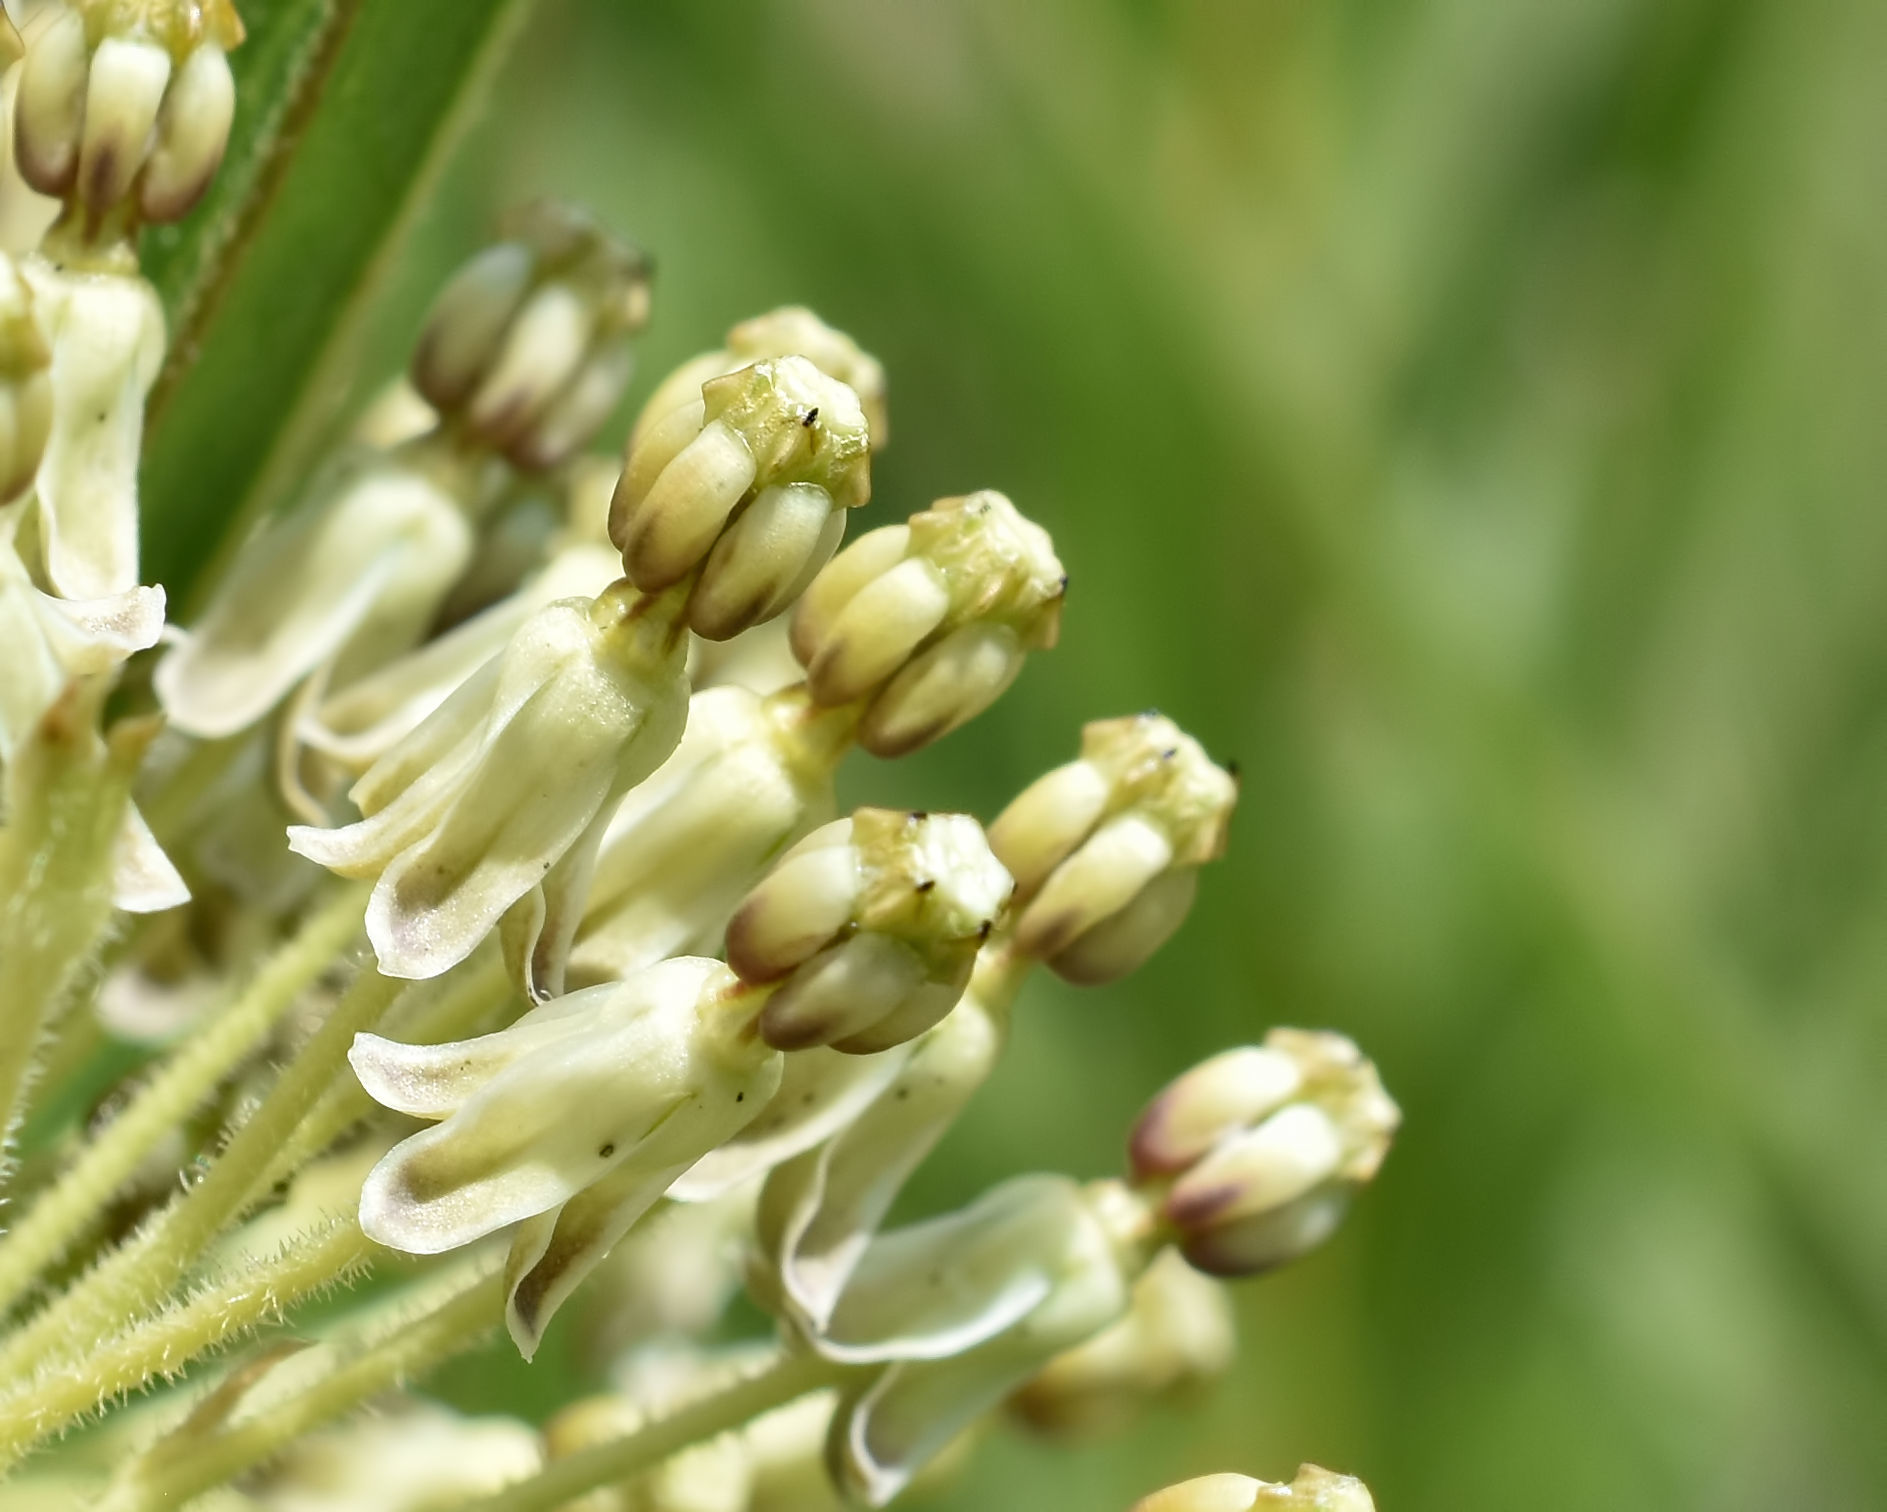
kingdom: Plantae
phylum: Tracheophyta
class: Magnoliopsida
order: Gentianales
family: Apocynaceae
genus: Asclepias
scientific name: Asclepias hirtella
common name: Prairie milkweed
